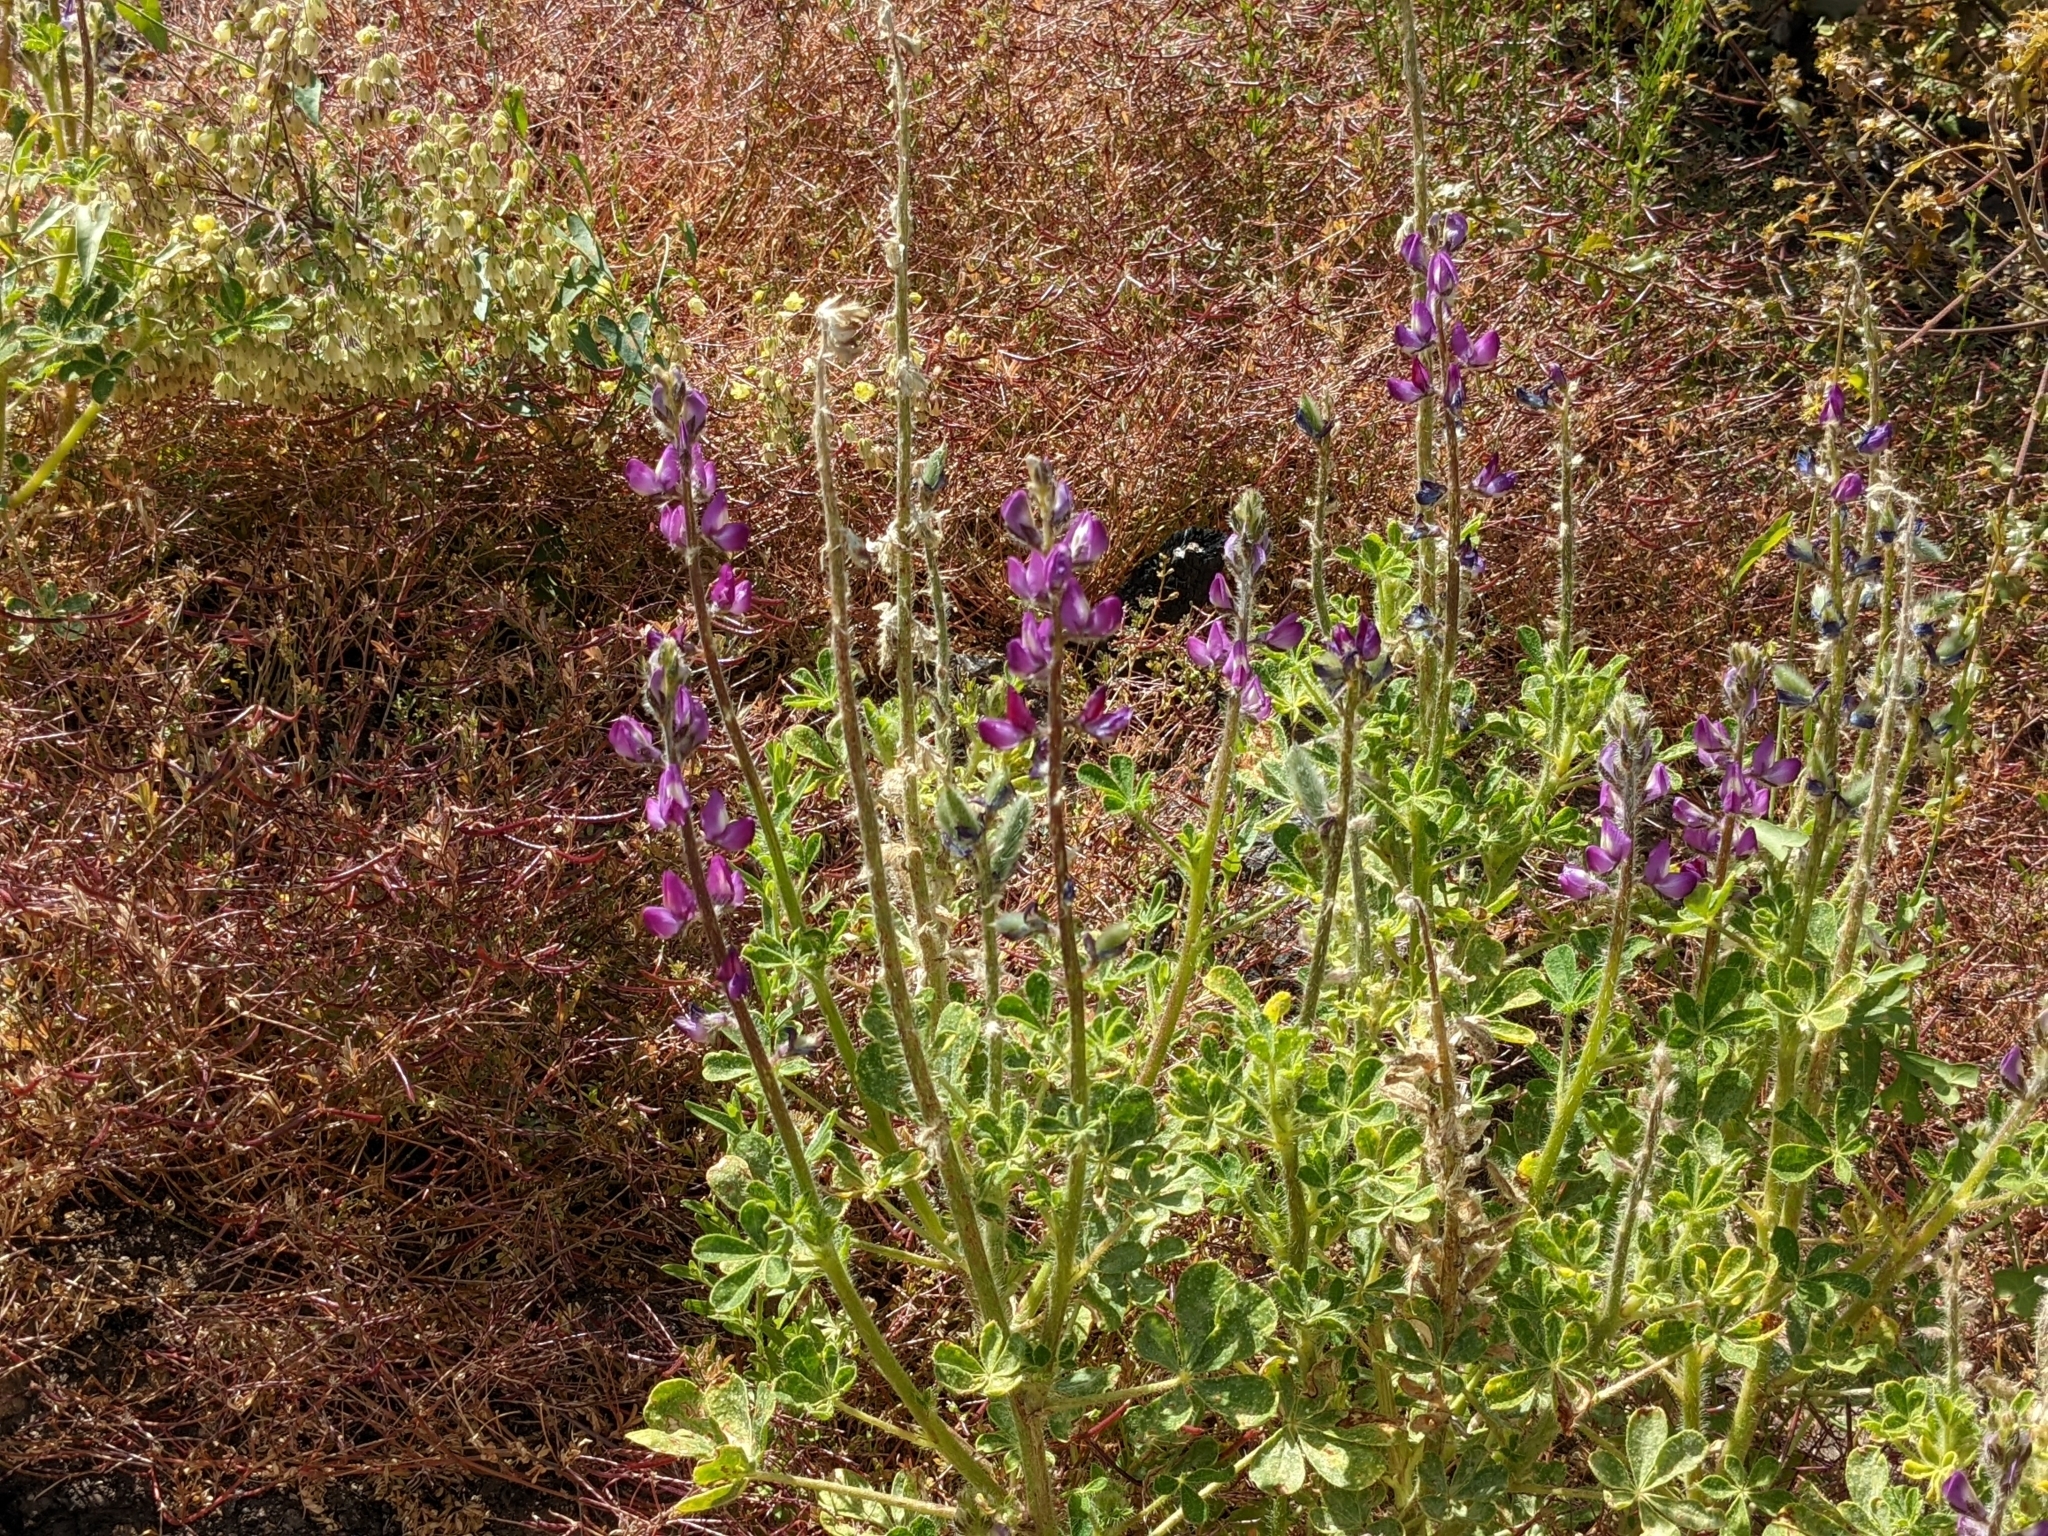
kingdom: Plantae
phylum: Tracheophyta
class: Magnoliopsida
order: Fabales
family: Fabaceae
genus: Lupinus
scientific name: Lupinus hirsutissimus
